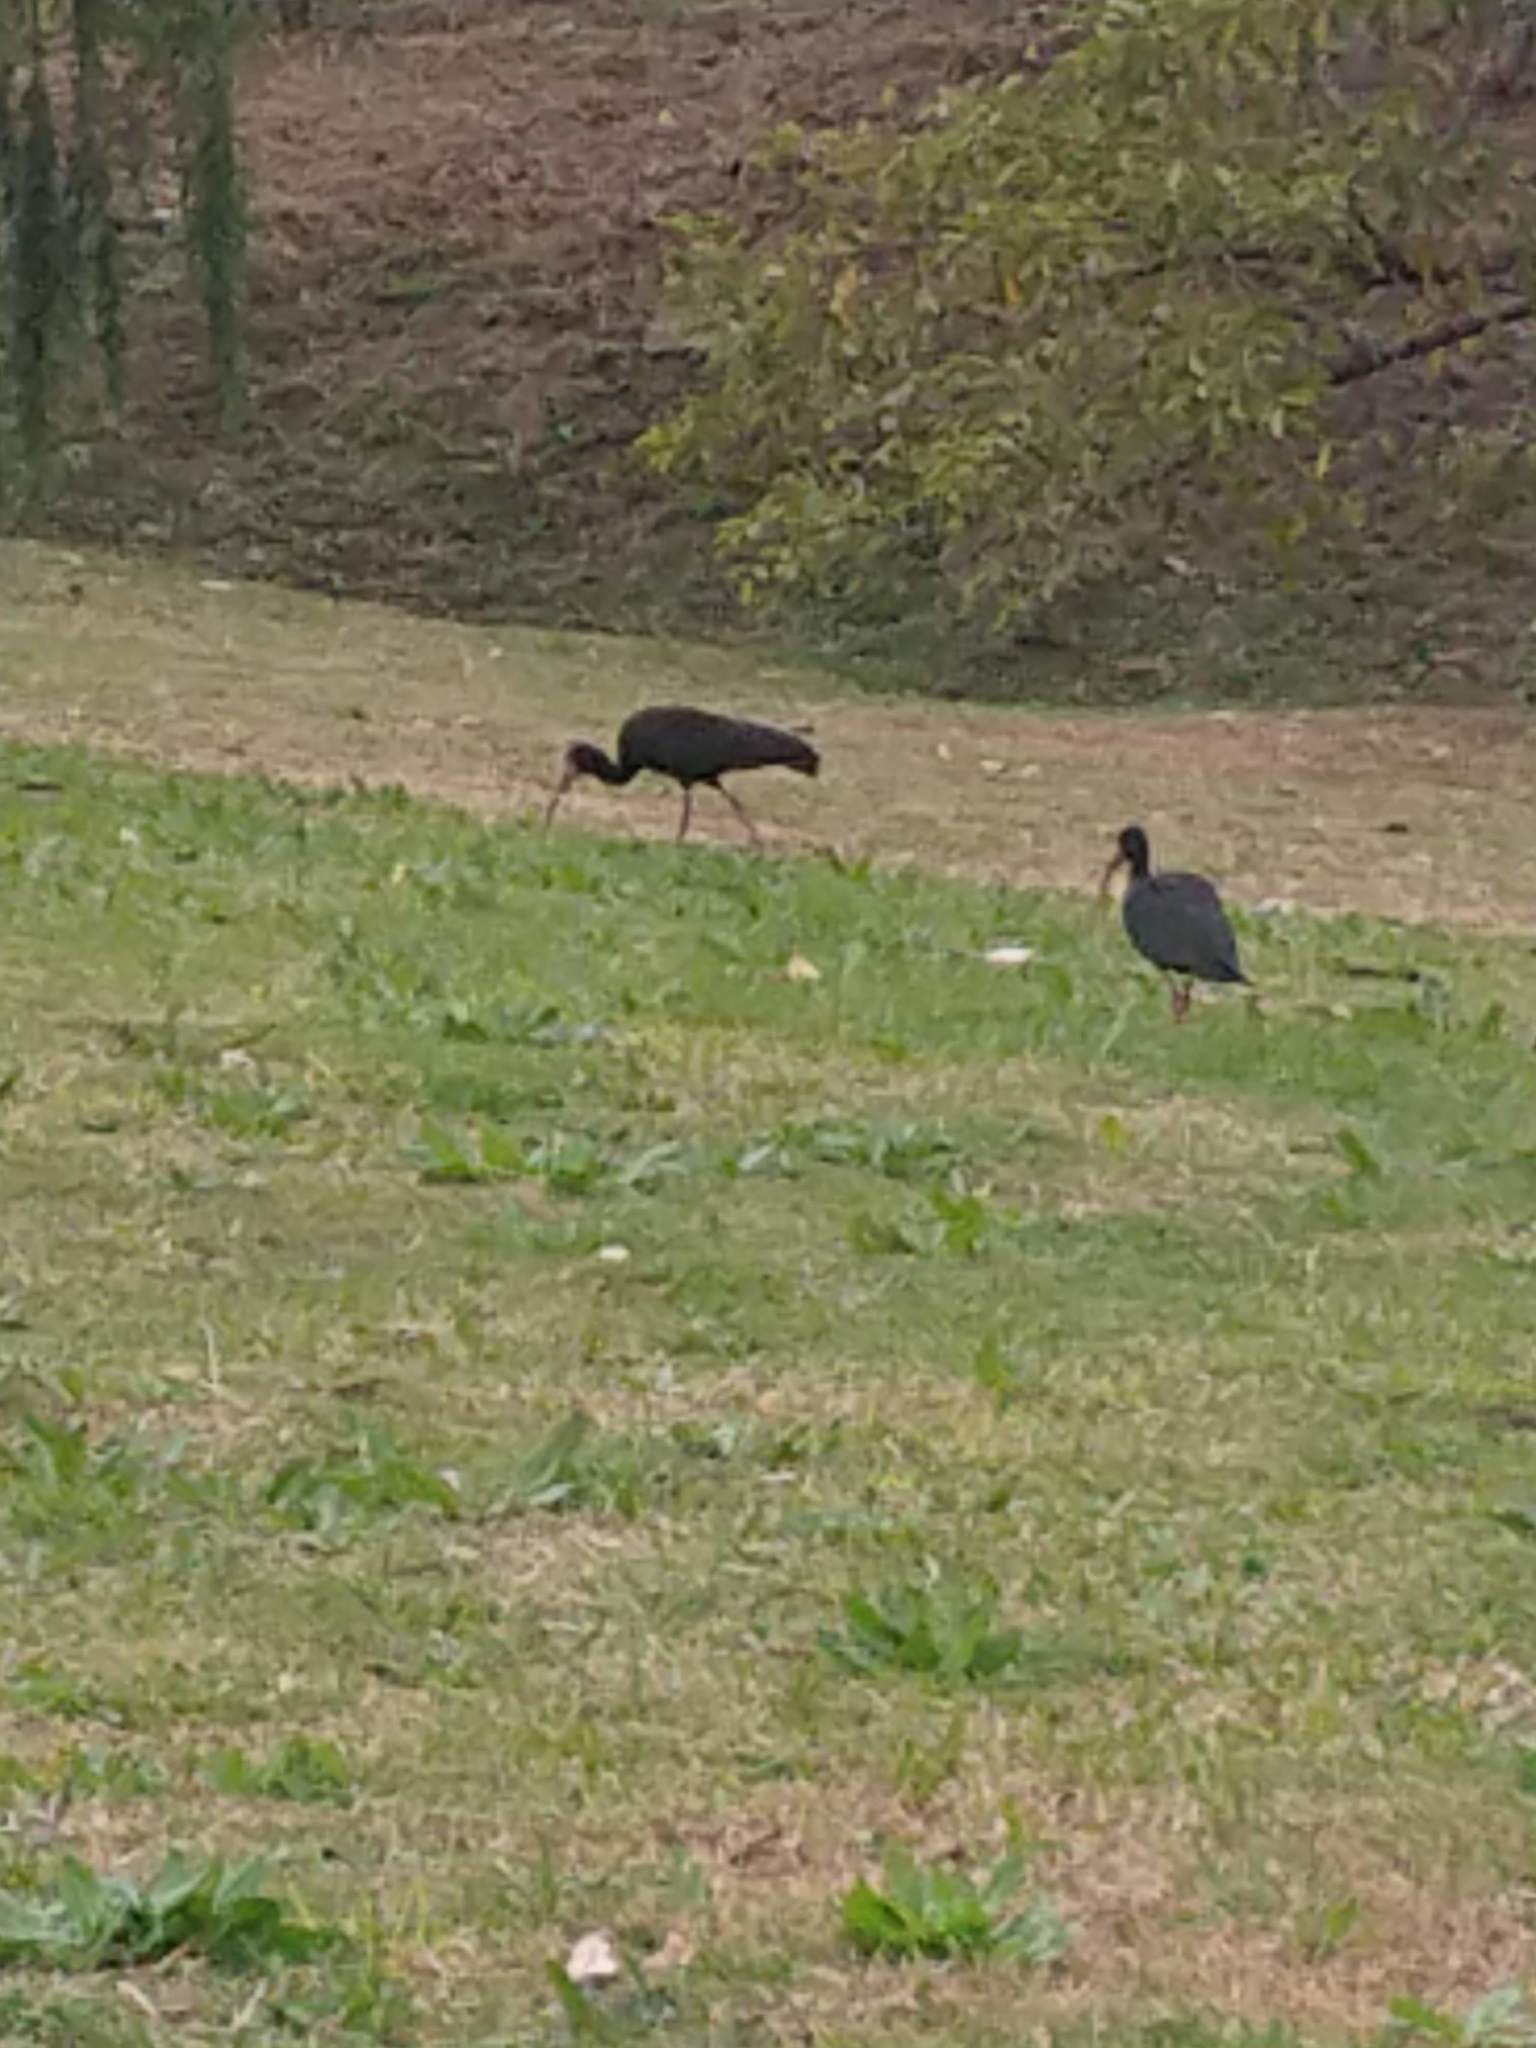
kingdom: Animalia
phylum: Chordata
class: Aves
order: Pelecaniformes
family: Threskiornithidae
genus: Phimosus
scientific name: Phimosus infuscatus
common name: Bare-faced ibis
